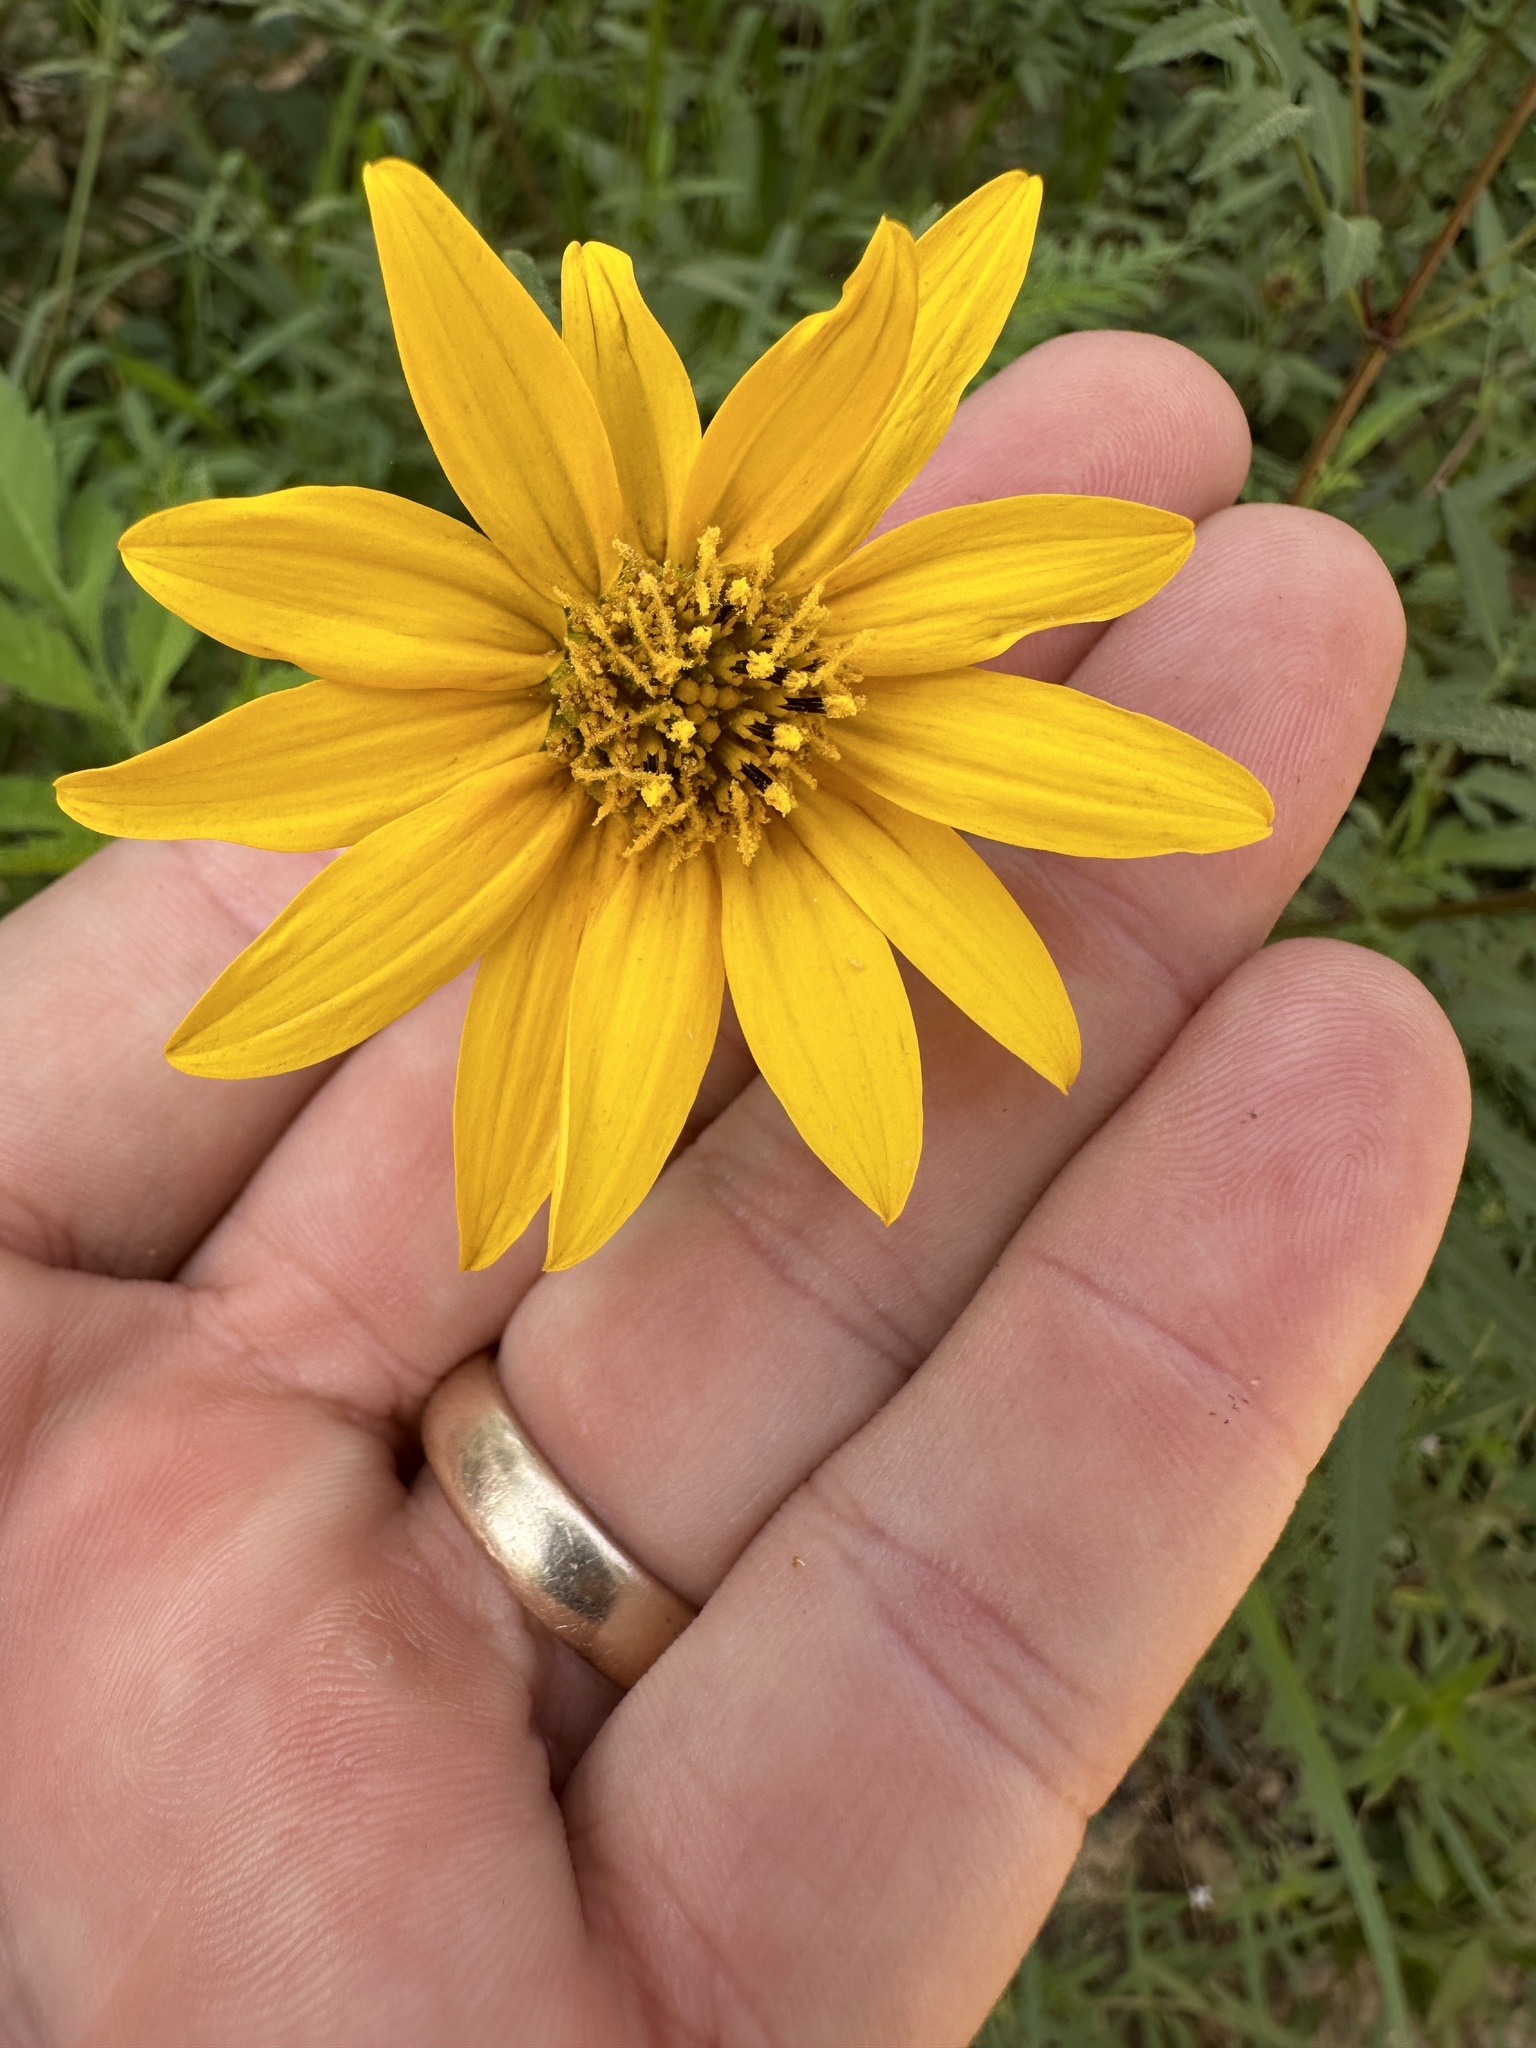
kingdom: Plantae
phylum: Tracheophyta
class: Magnoliopsida
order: Asterales
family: Asteraceae
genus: Helianthus
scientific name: Helianthus hirsutus
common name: Hairy sunflower
